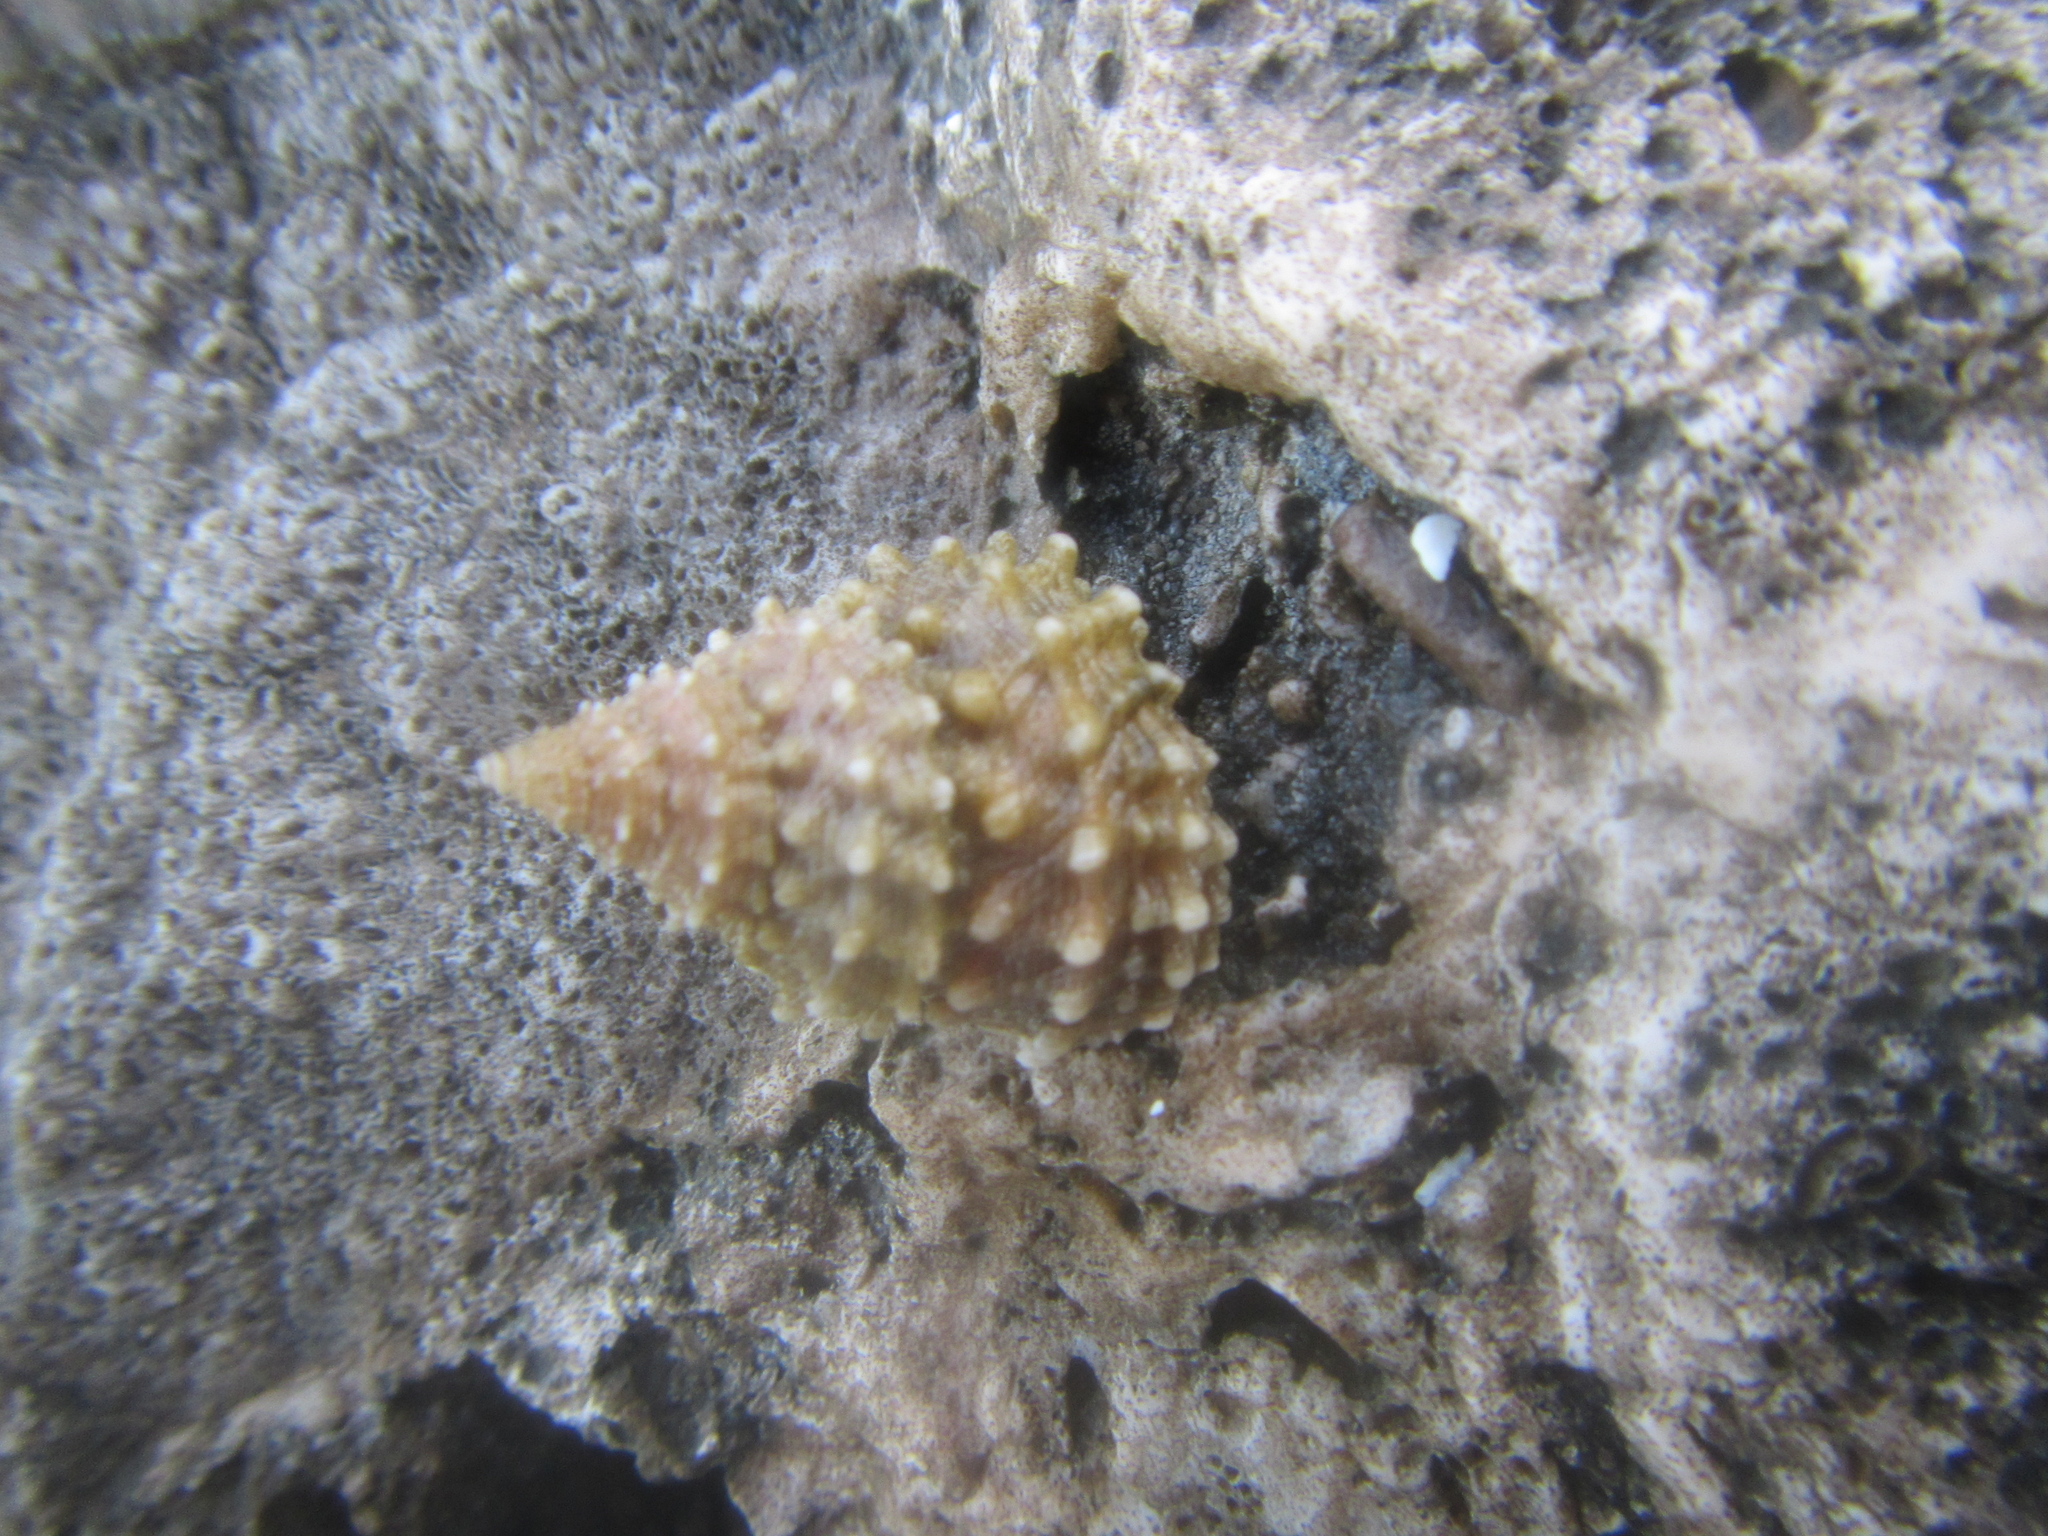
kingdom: Animalia
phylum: Mollusca
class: Gastropoda
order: Littorinimorpha
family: Littorinidae
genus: Tectarius
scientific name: Tectarius grandinatus
